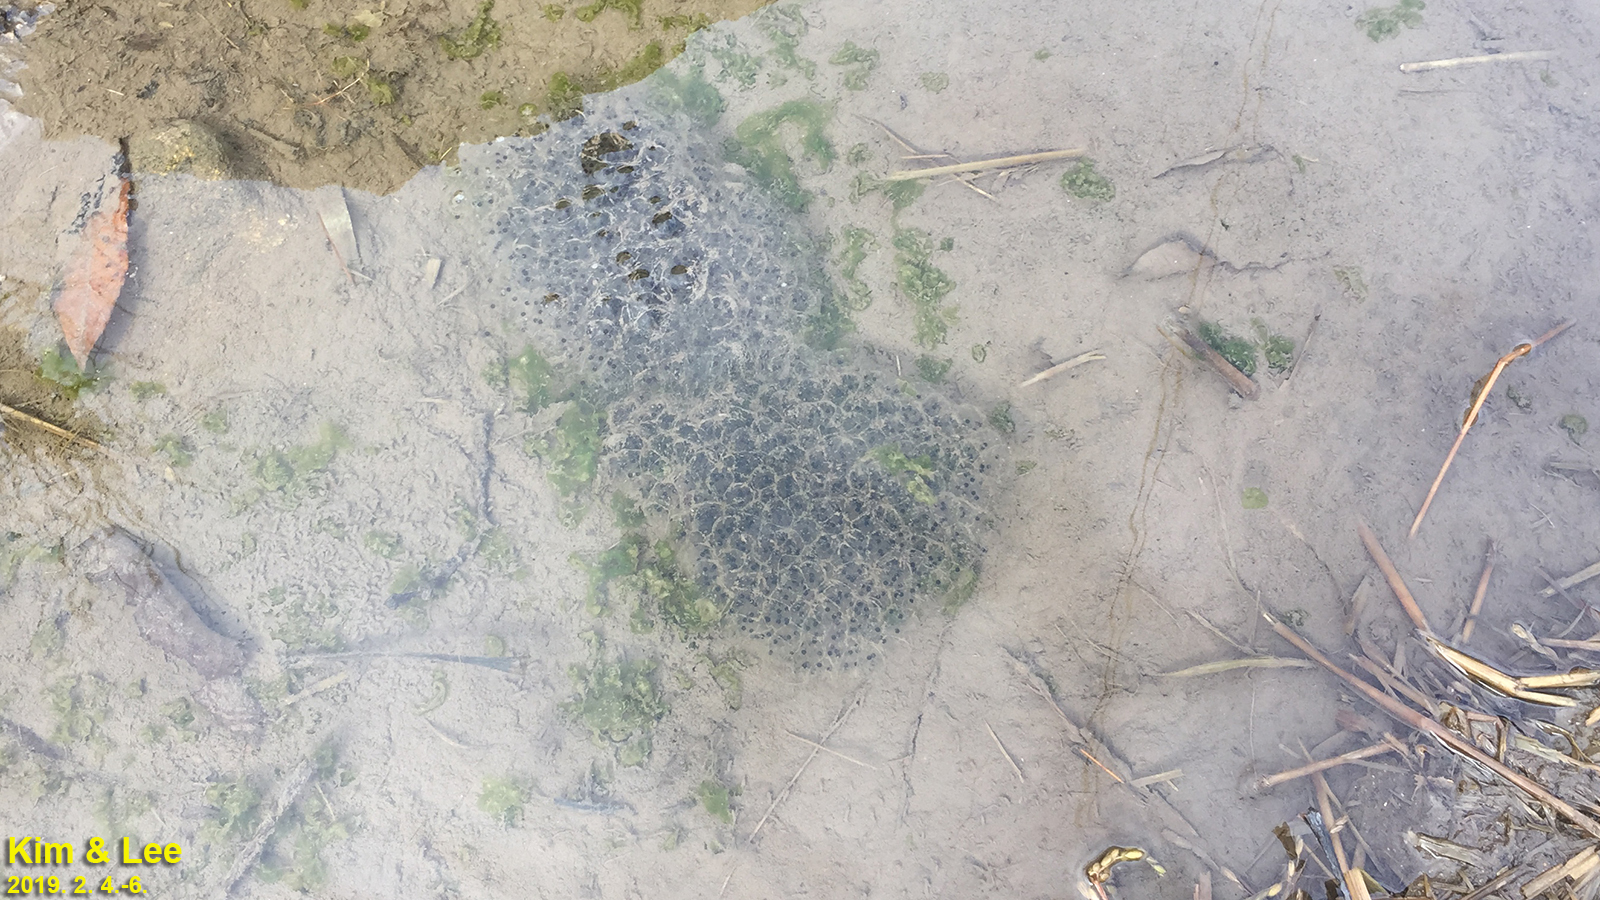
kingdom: Animalia
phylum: Chordata
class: Amphibia
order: Anura
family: Ranidae
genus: Rana
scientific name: Rana uenoi
